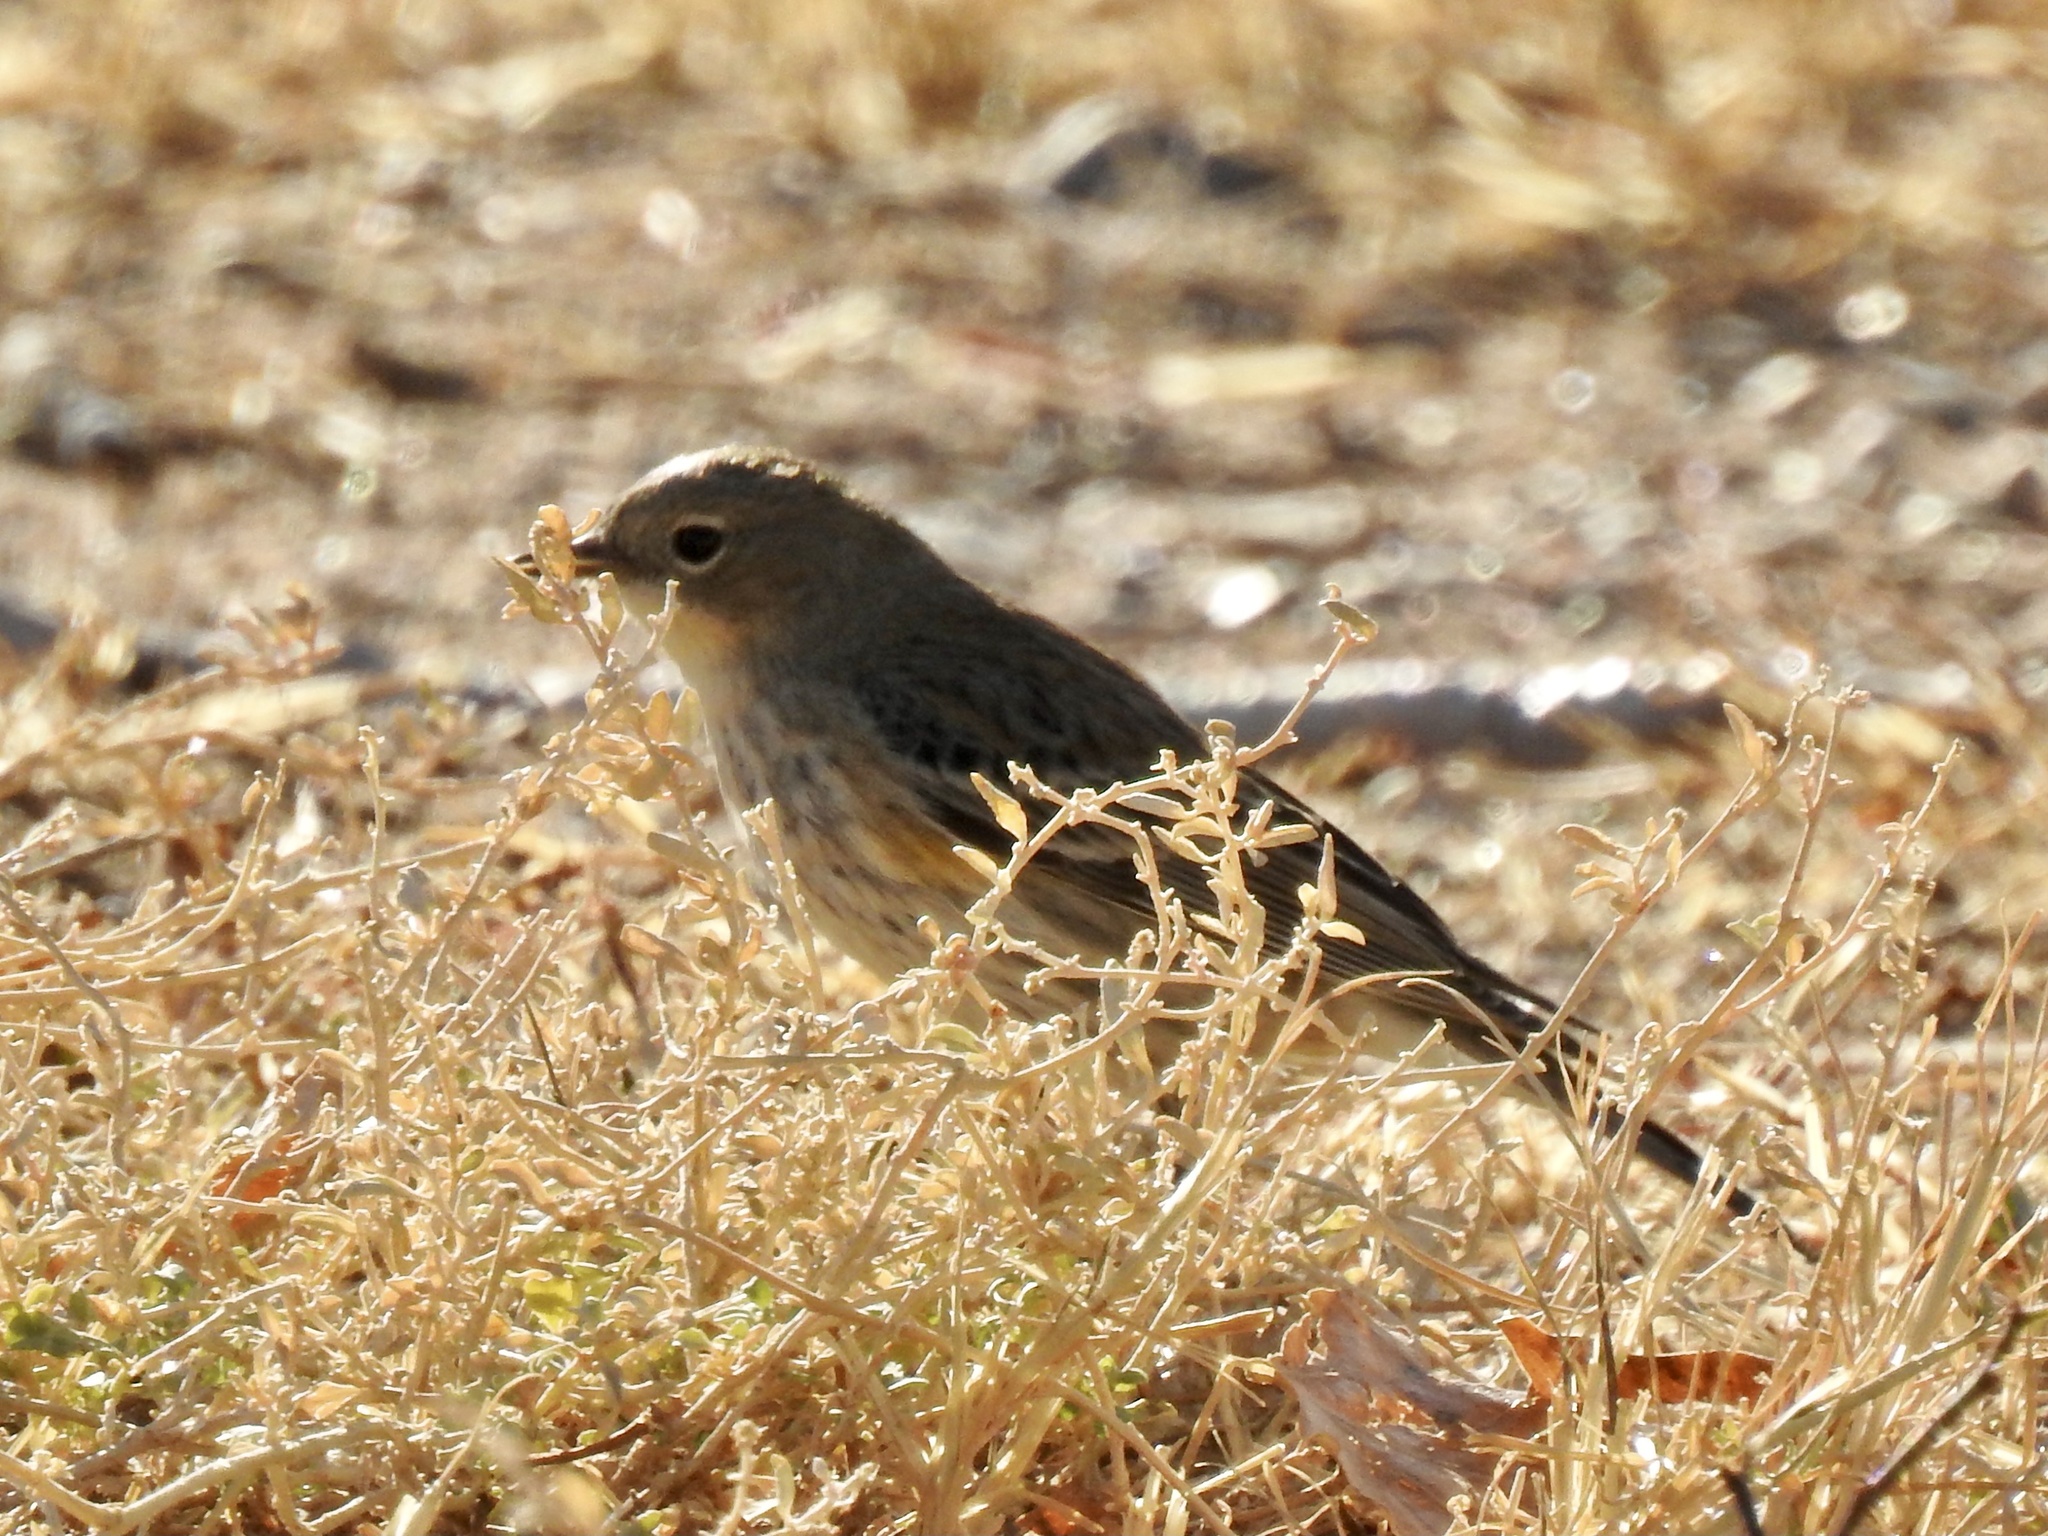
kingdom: Animalia
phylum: Chordata
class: Aves
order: Passeriformes
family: Parulidae
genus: Setophaga
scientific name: Setophaga coronata
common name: Myrtle warbler
